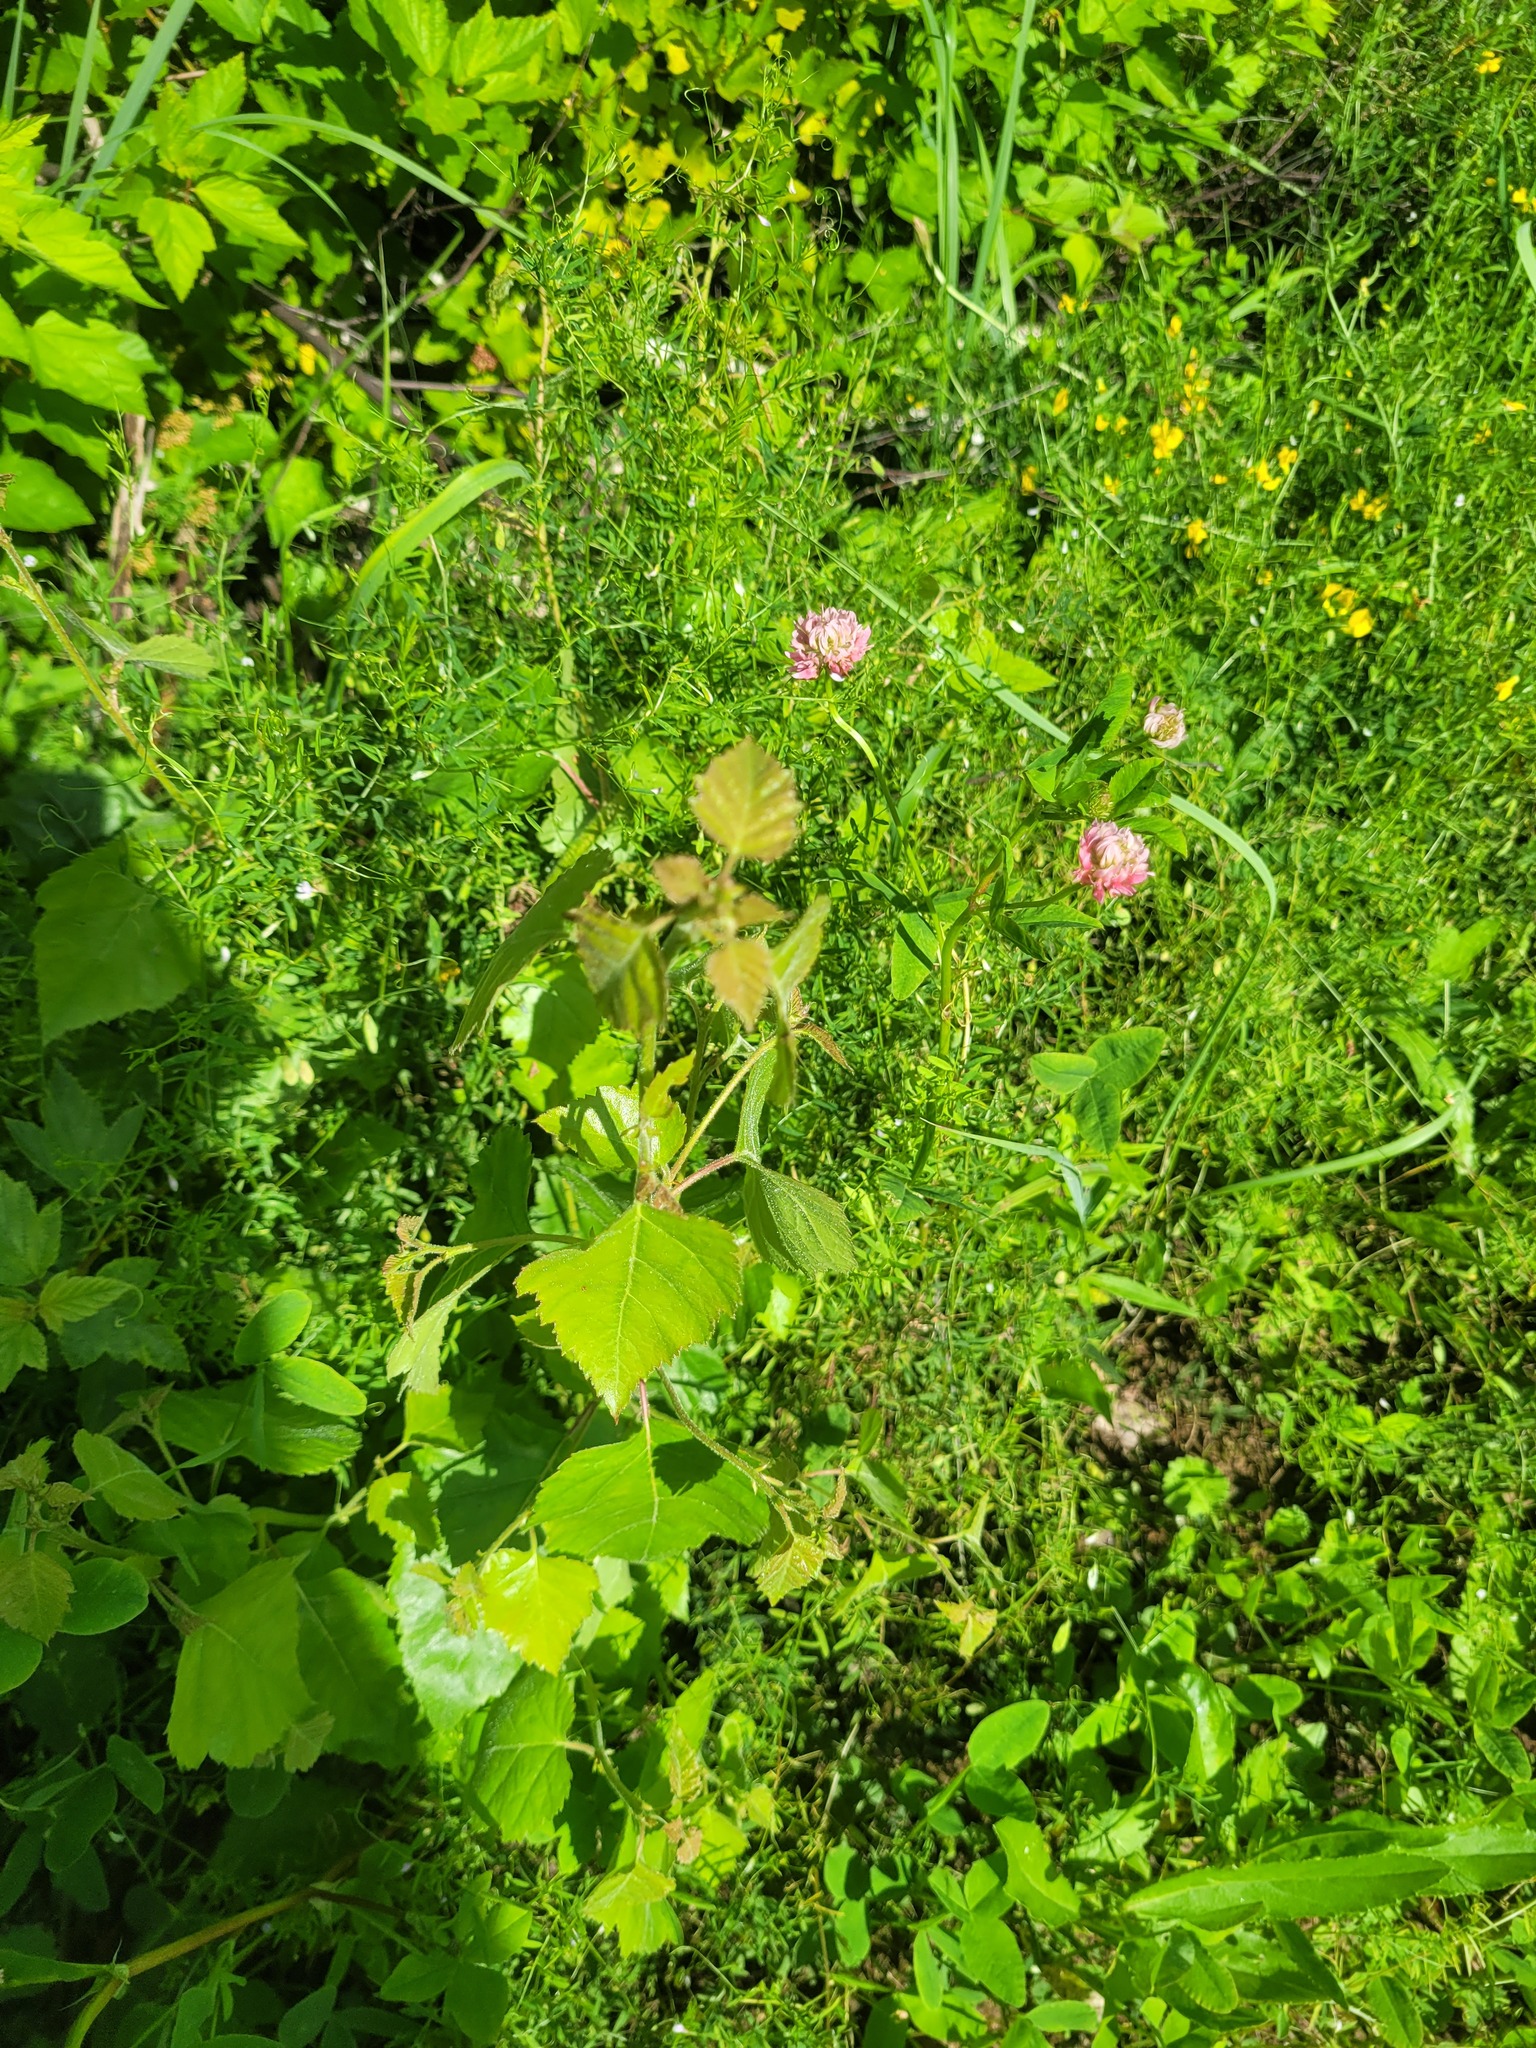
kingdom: Plantae
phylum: Tracheophyta
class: Magnoliopsida
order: Fagales
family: Betulaceae
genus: Betula
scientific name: Betula pubescens
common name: Downy birch
